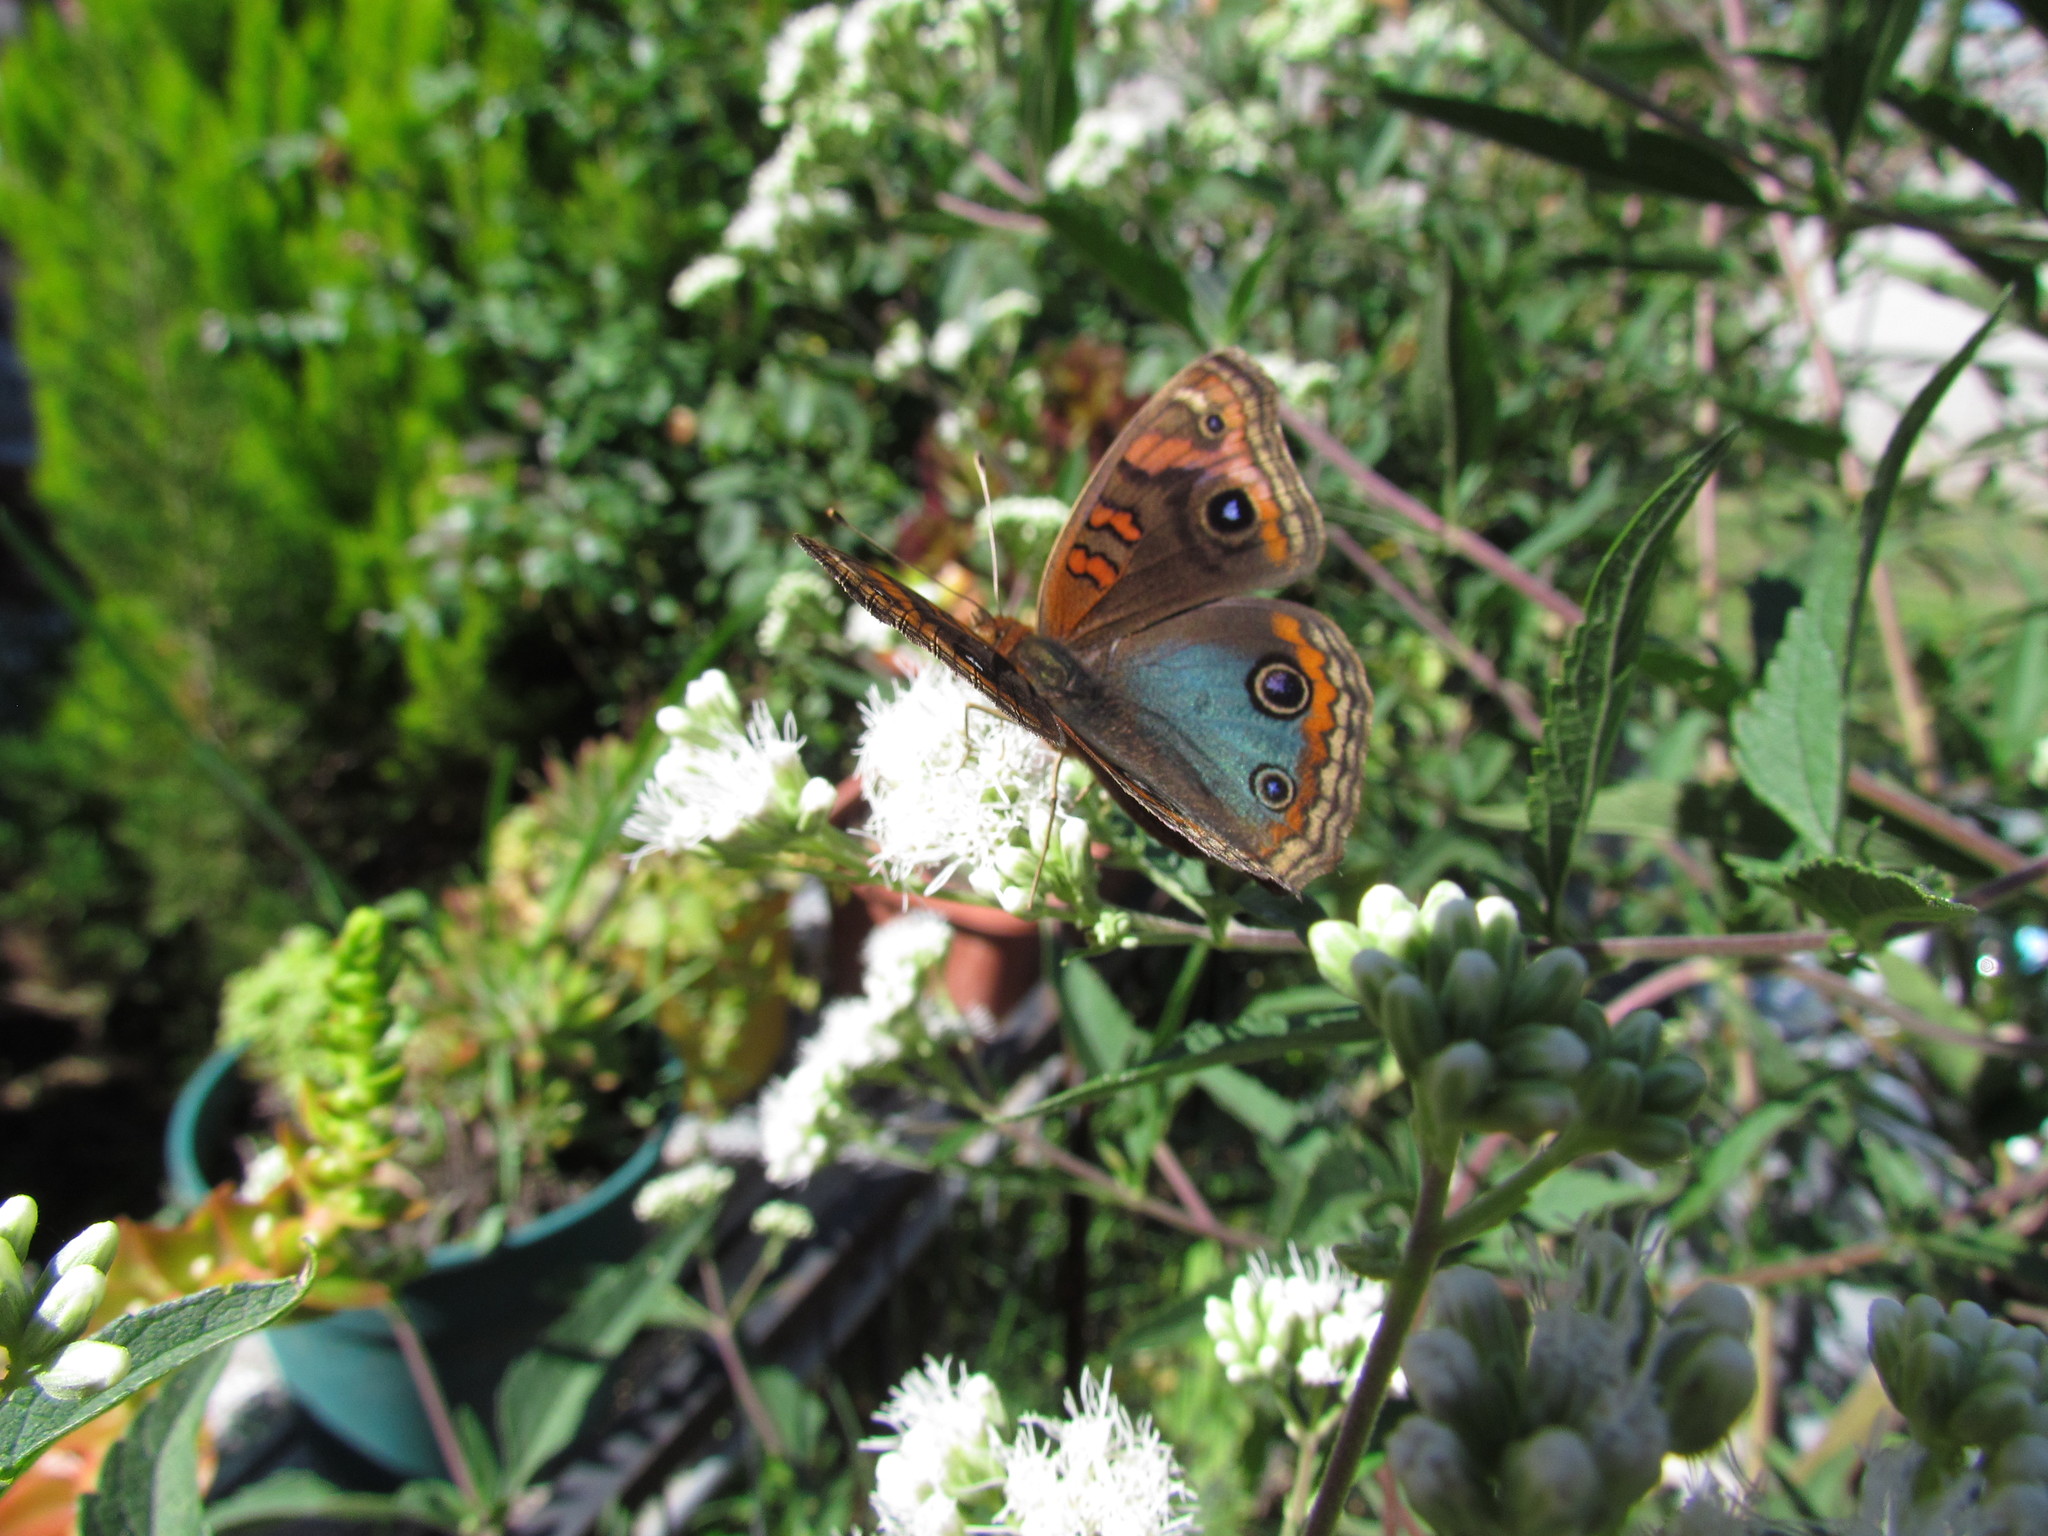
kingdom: Animalia
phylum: Arthropoda
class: Insecta
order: Lepidoptera
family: Nymphalidae
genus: Junonia
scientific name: Junonia lavinia
